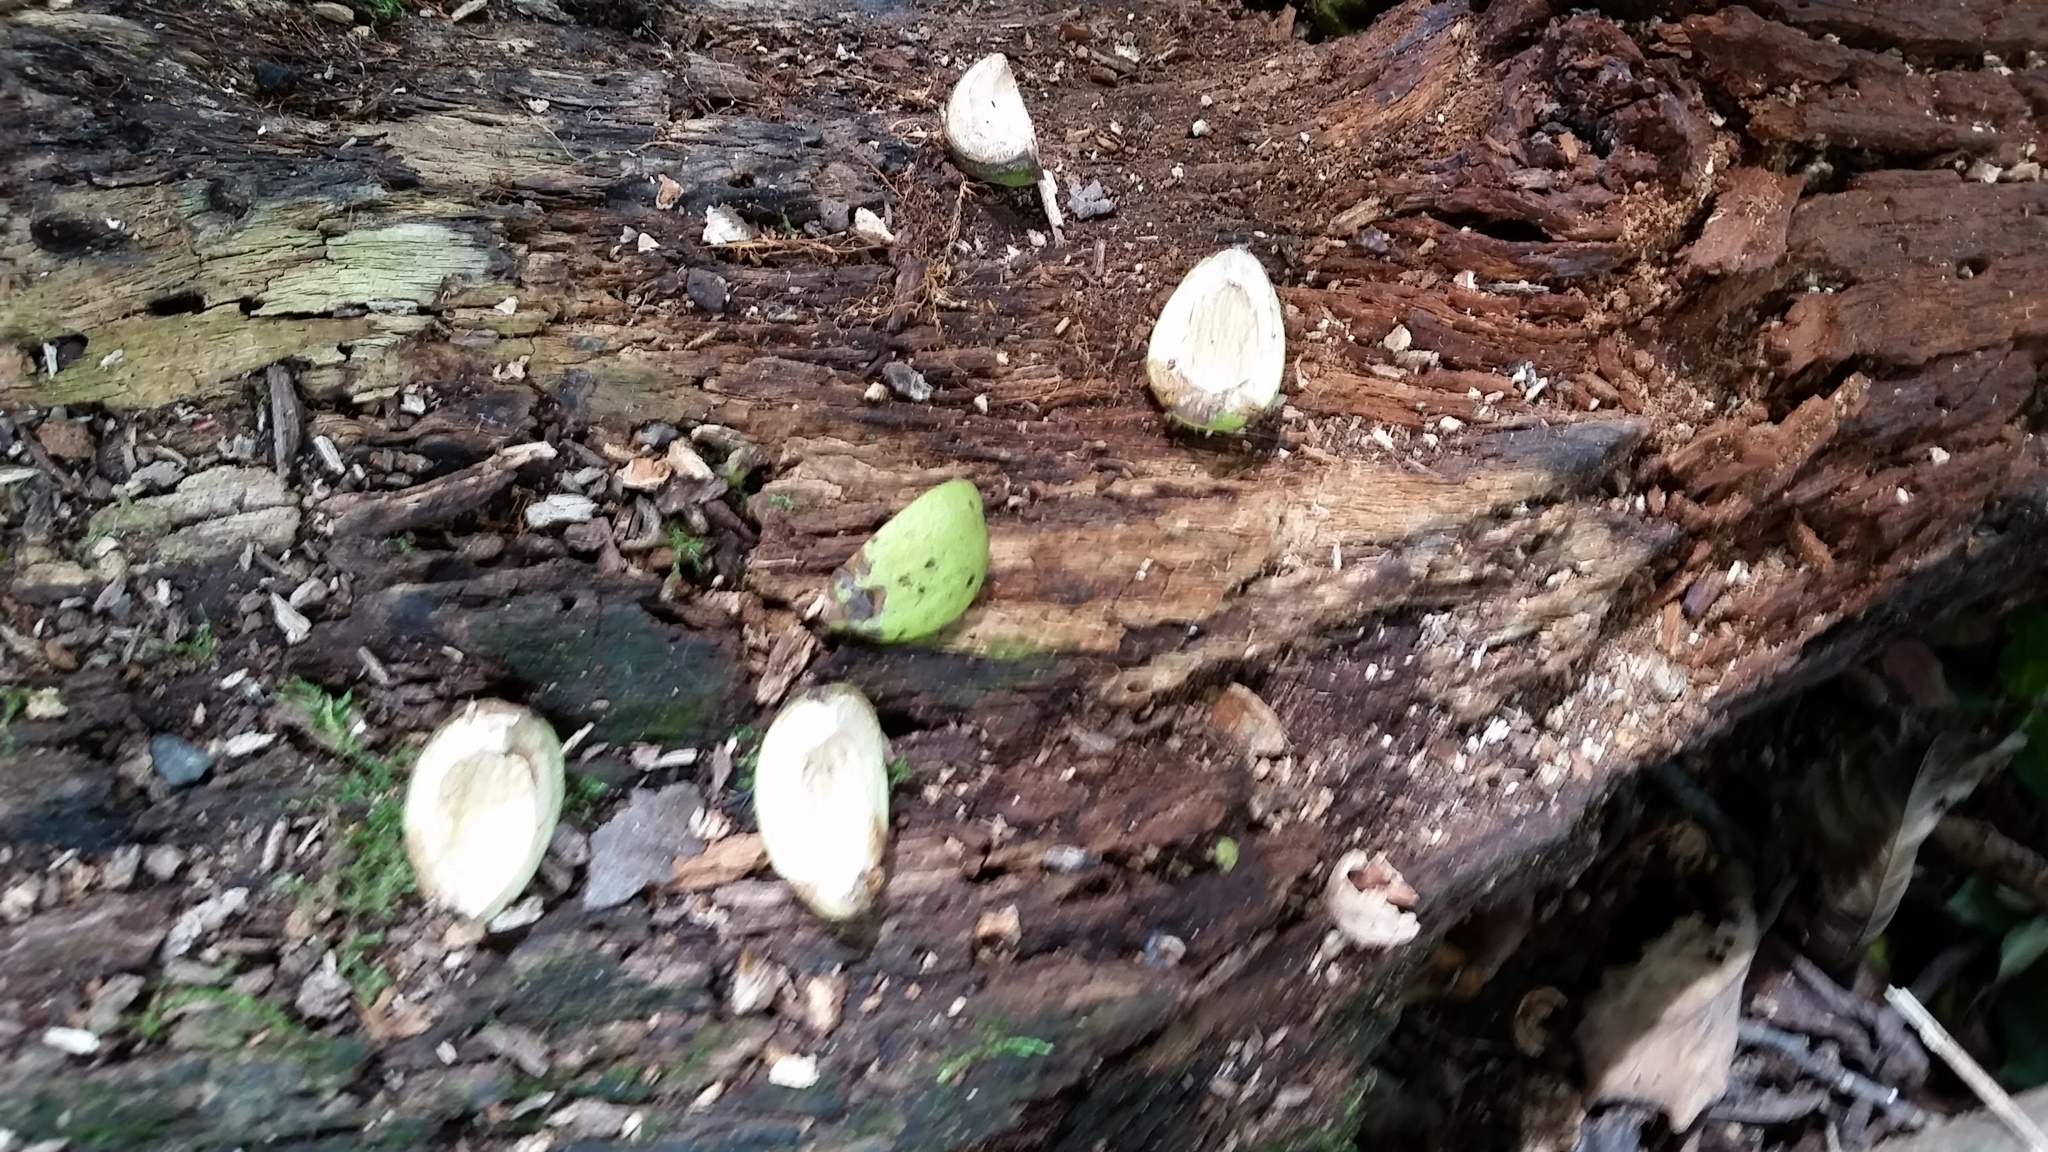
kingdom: Plantae
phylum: Tracheophyta
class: Magnoliopsida
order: Fagales
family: Juglandaceae
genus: Carya
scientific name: Carya ovata
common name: Shagbark hickory
